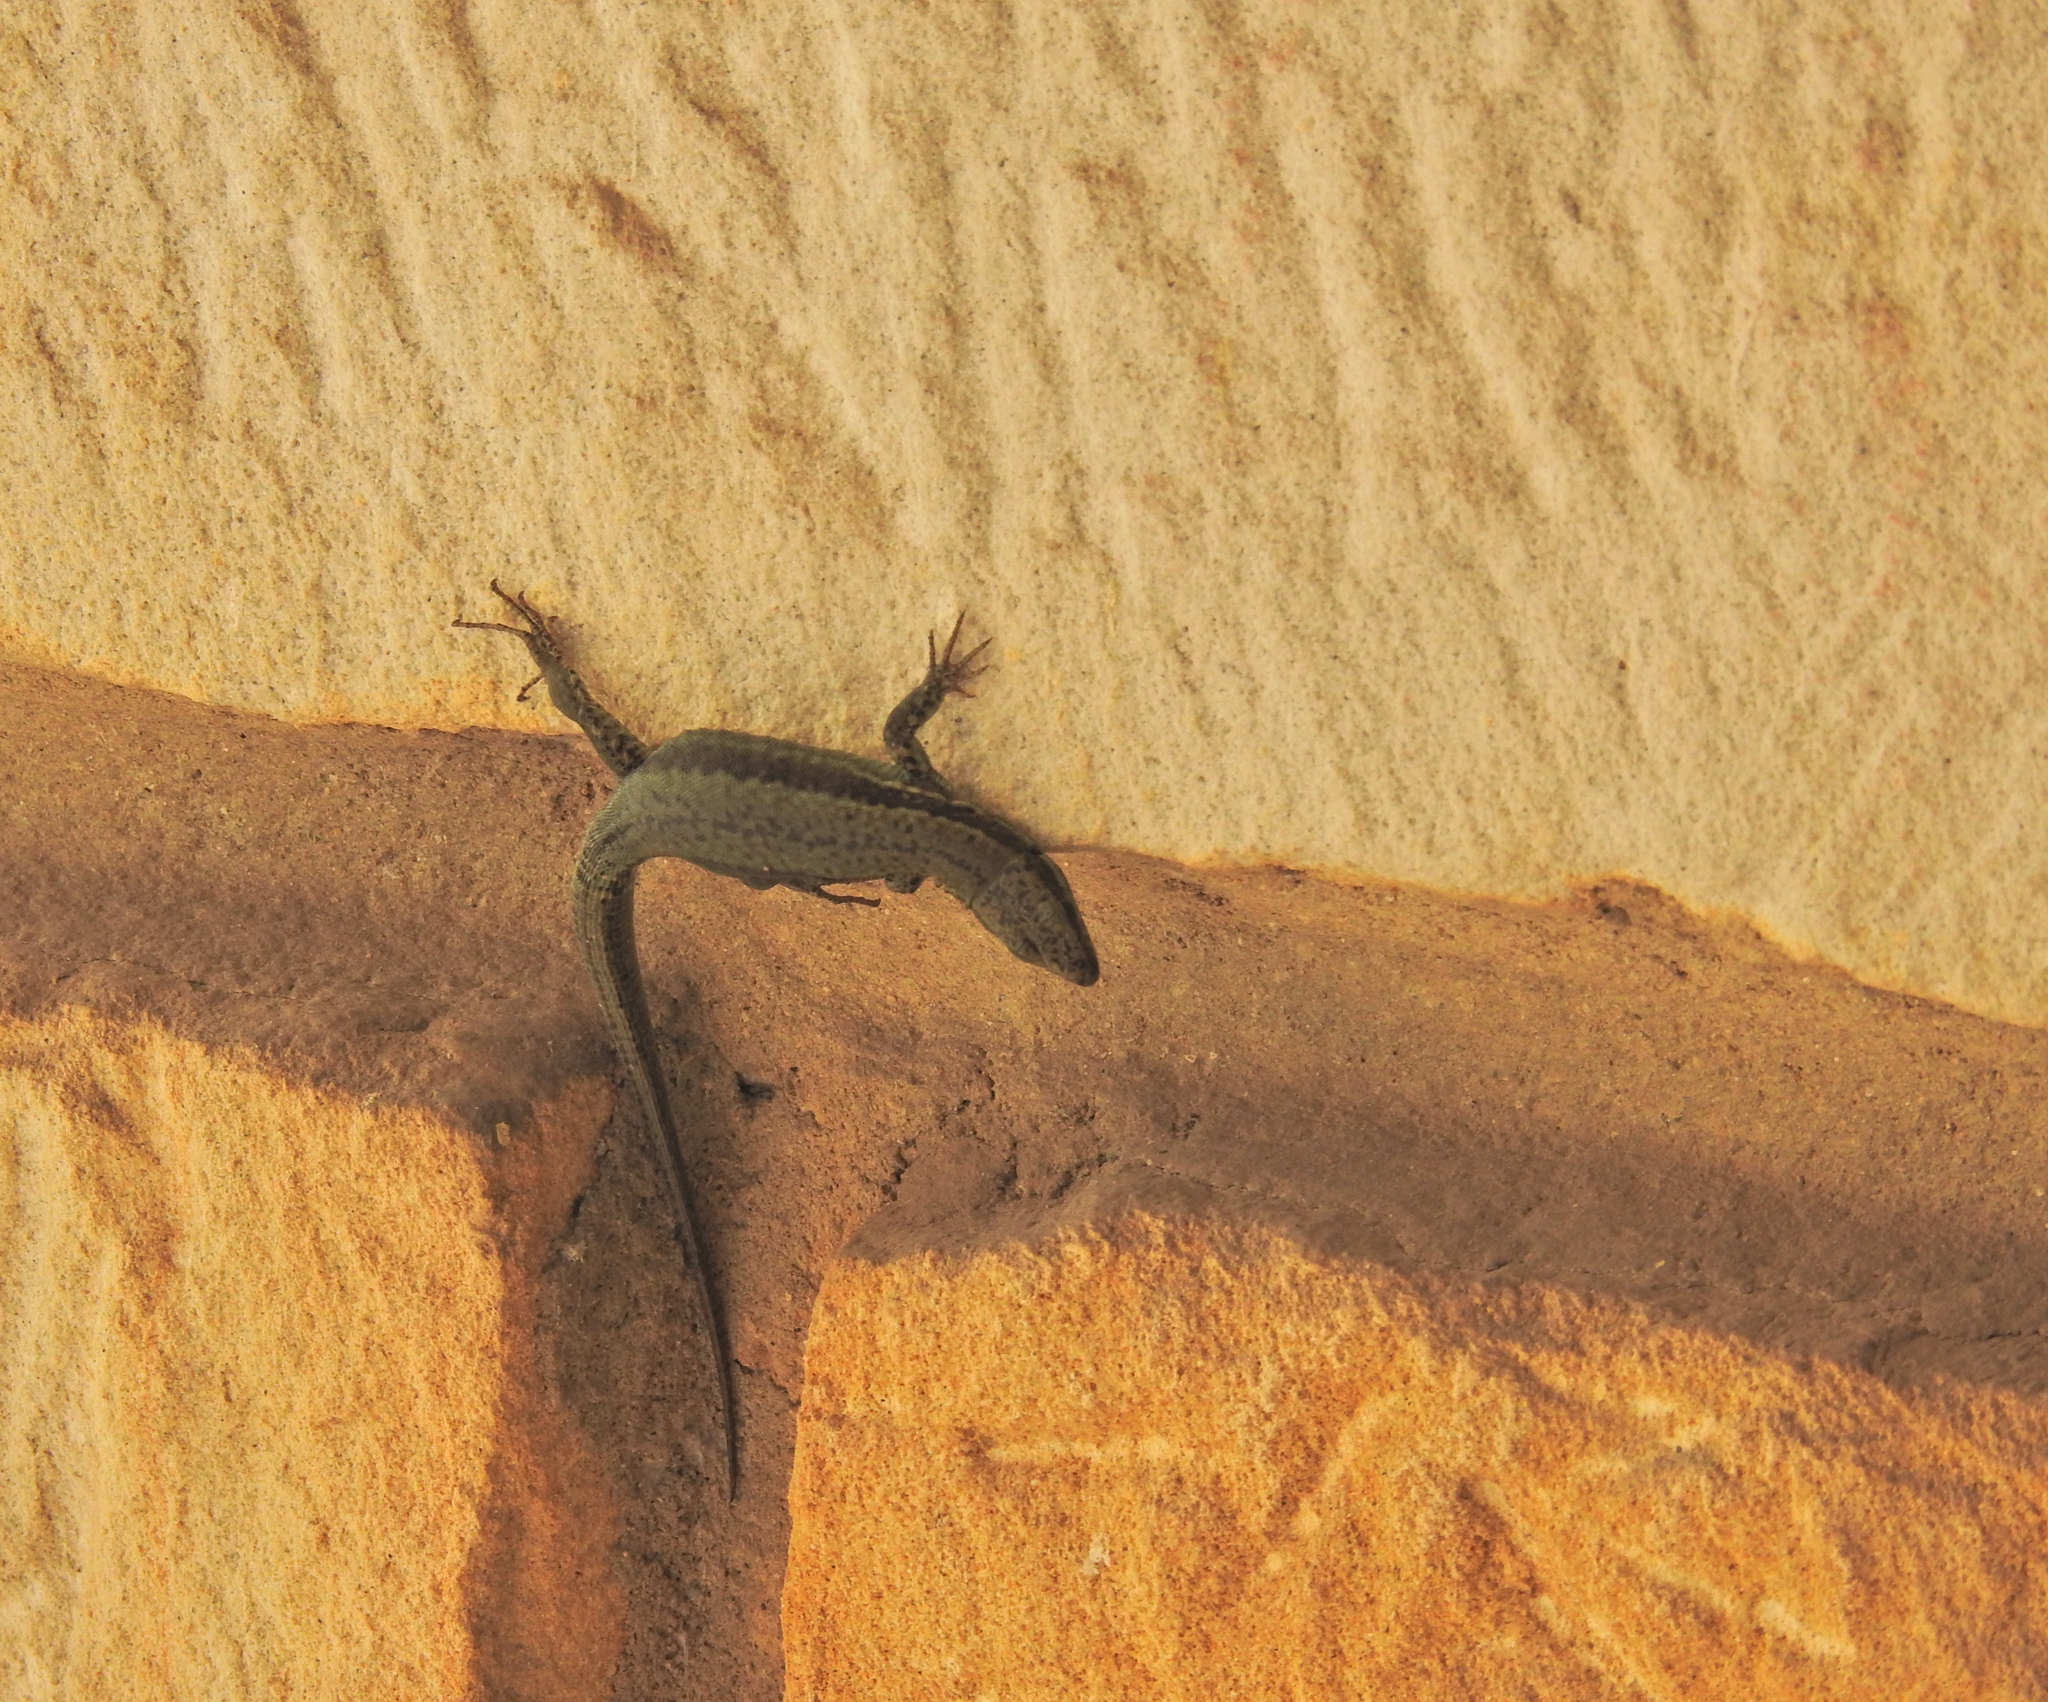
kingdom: Animalia
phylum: Chordata
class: Squamata
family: Lacertidae
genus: Podarcis
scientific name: Podarcis muralis
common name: Common wall lizard
